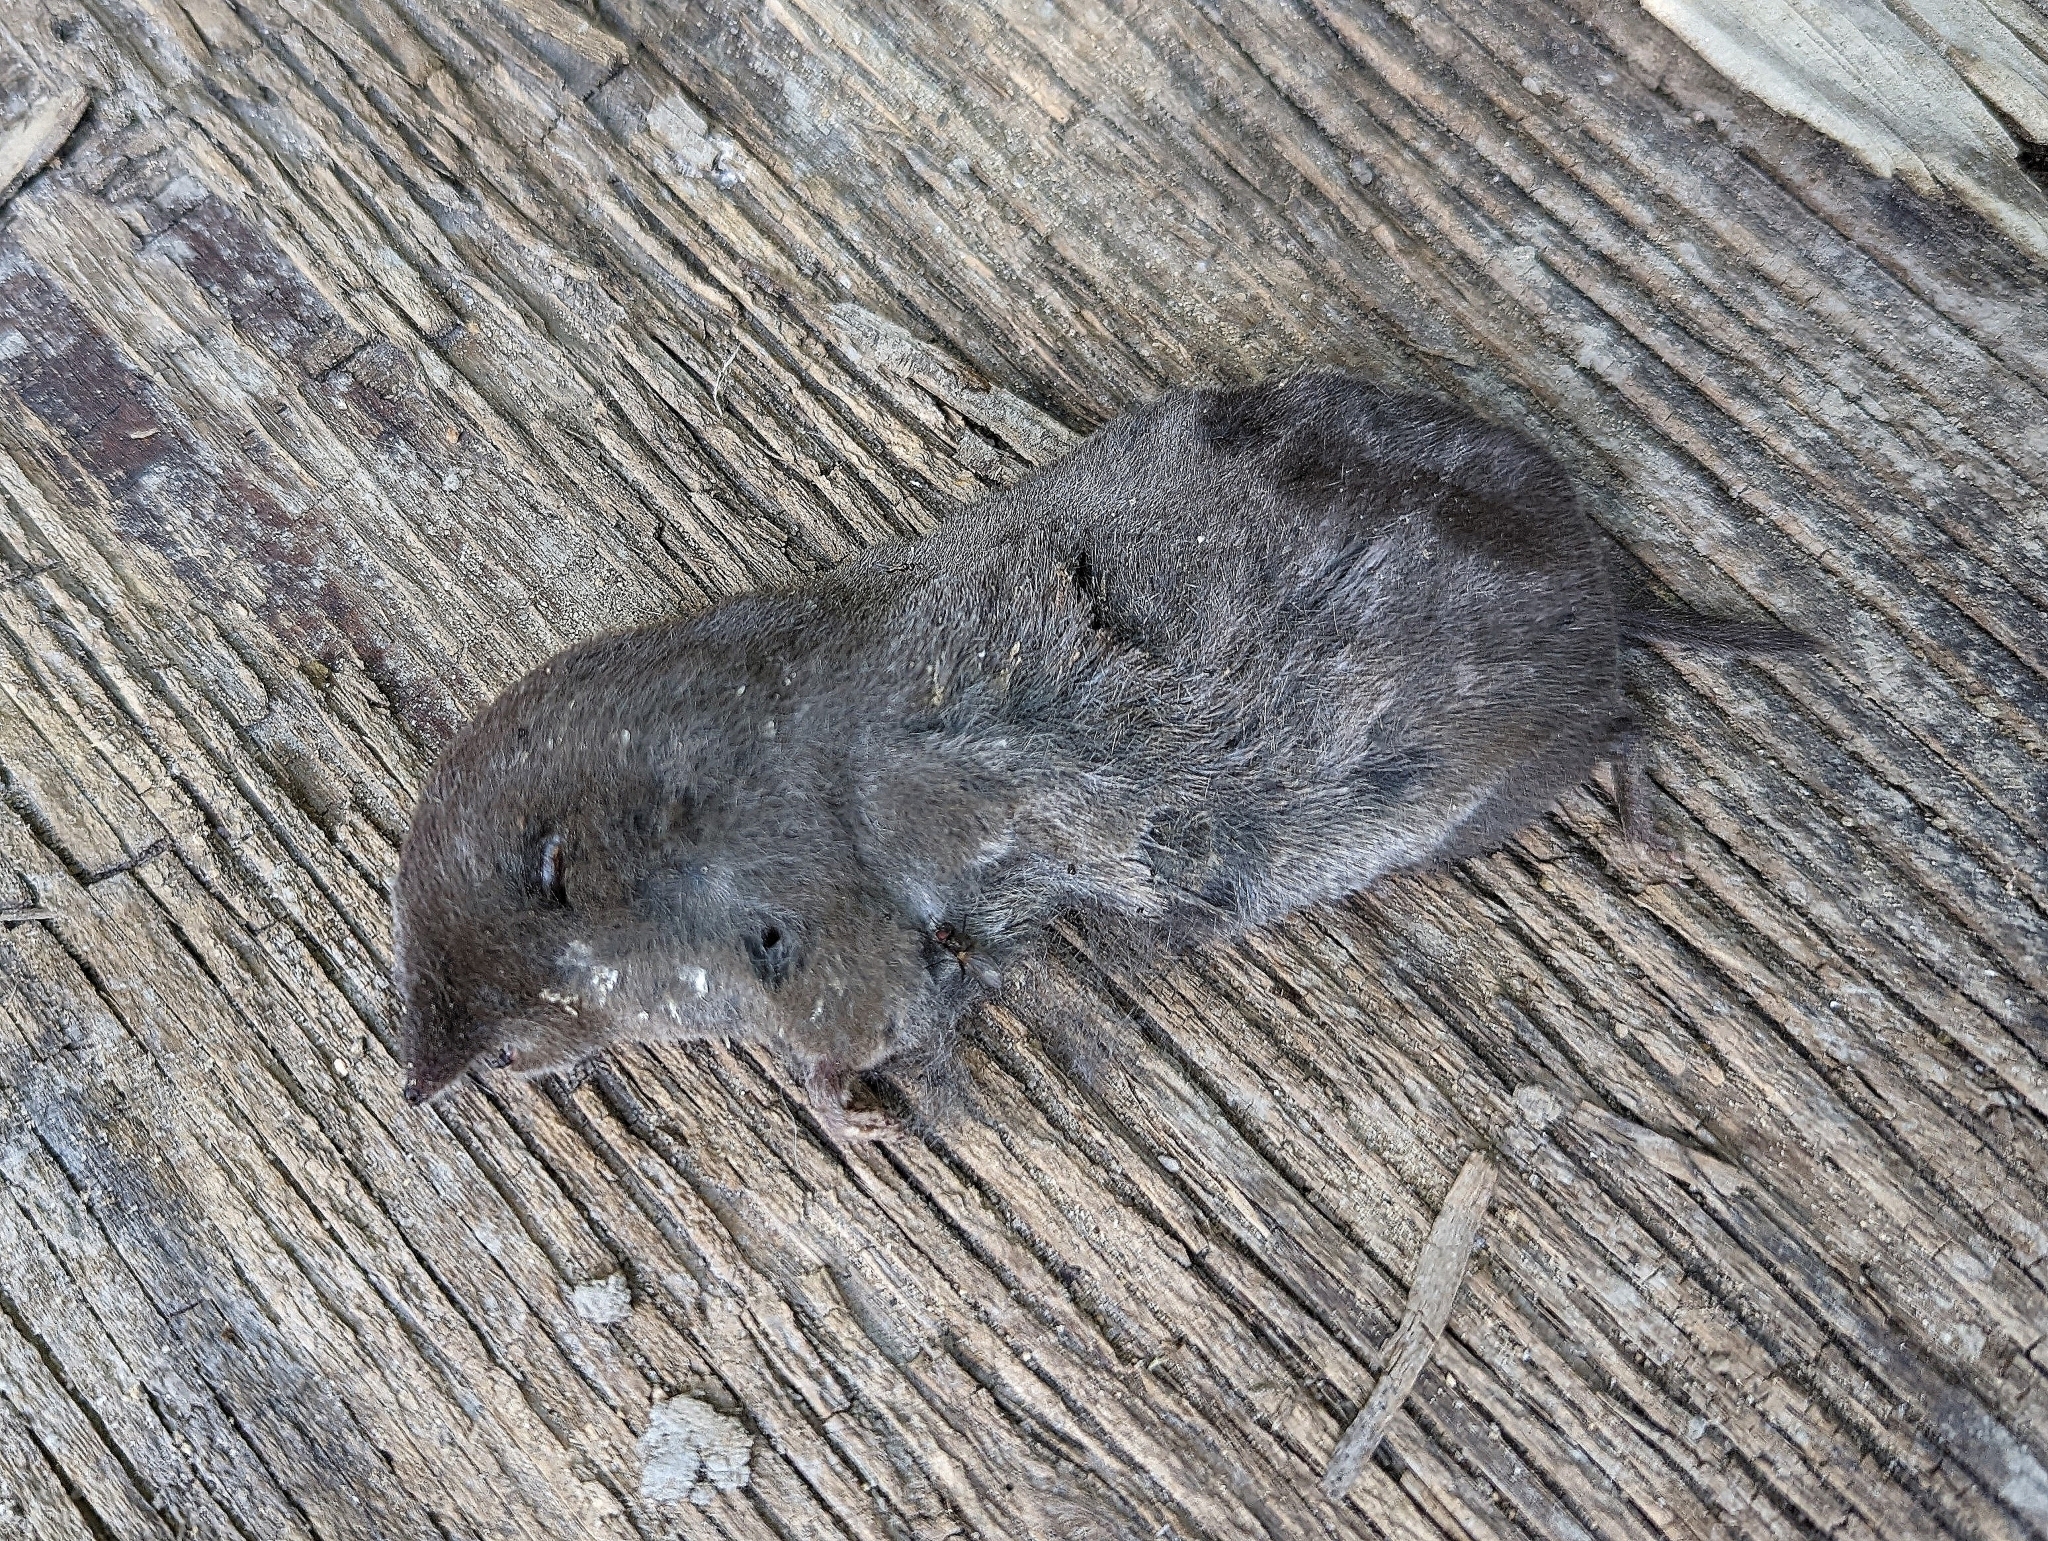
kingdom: Animalia
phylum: Chordata
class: Mammalia
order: Soricomorpha
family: Soricidae
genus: Blarina
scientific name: Blarina brevicauda
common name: Northern short-tailed shrew
